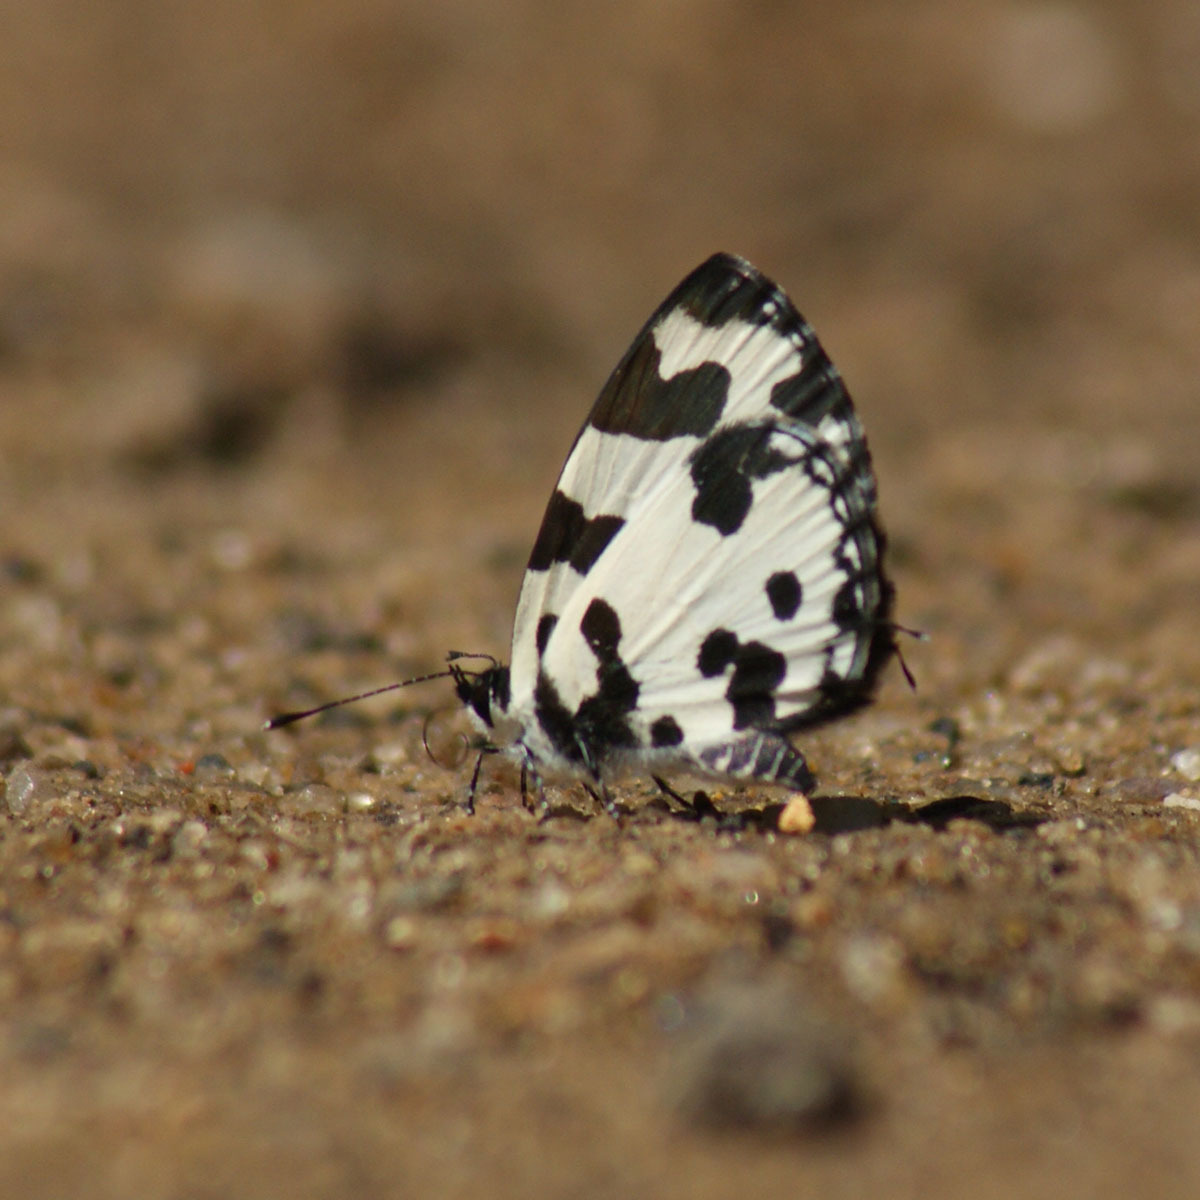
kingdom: Animalia
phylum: Arthropoda
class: Insecta
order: Lepidoptera
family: Lycaenidae
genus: Caleta
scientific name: Caleta decidia
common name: Angled pierrot
